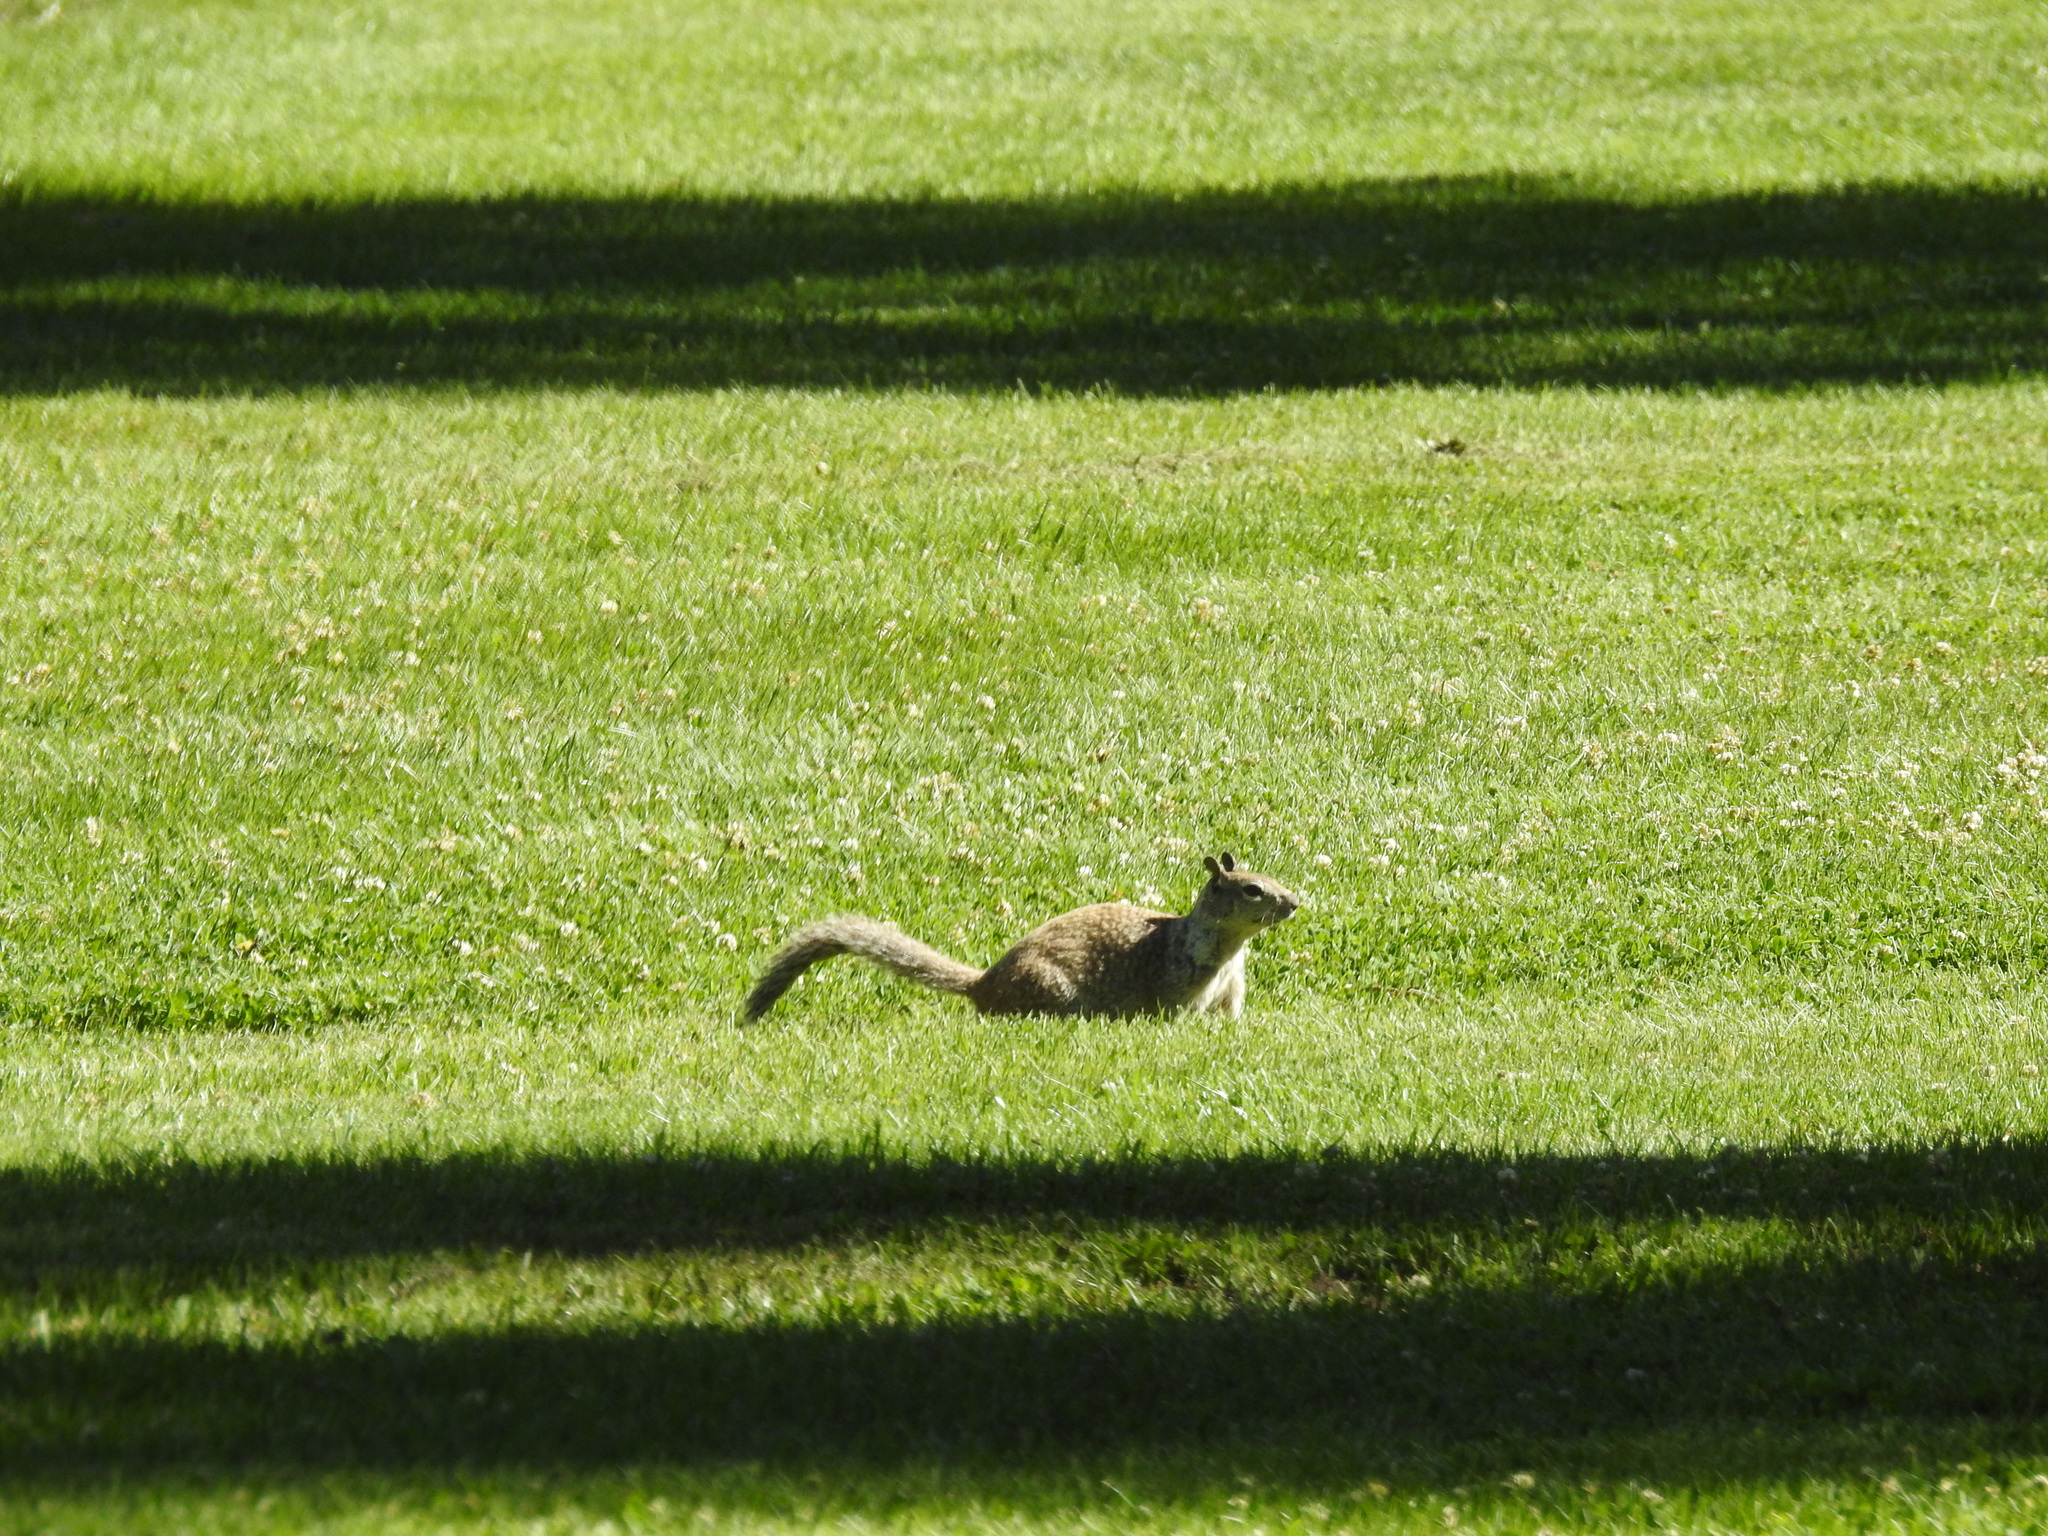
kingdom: Animalia
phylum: Chordata
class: Mammalia
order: Rodentia
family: Sciuridae
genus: Otospermophilus
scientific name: Otospermophilus beecheyi
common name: California ground squirrel
